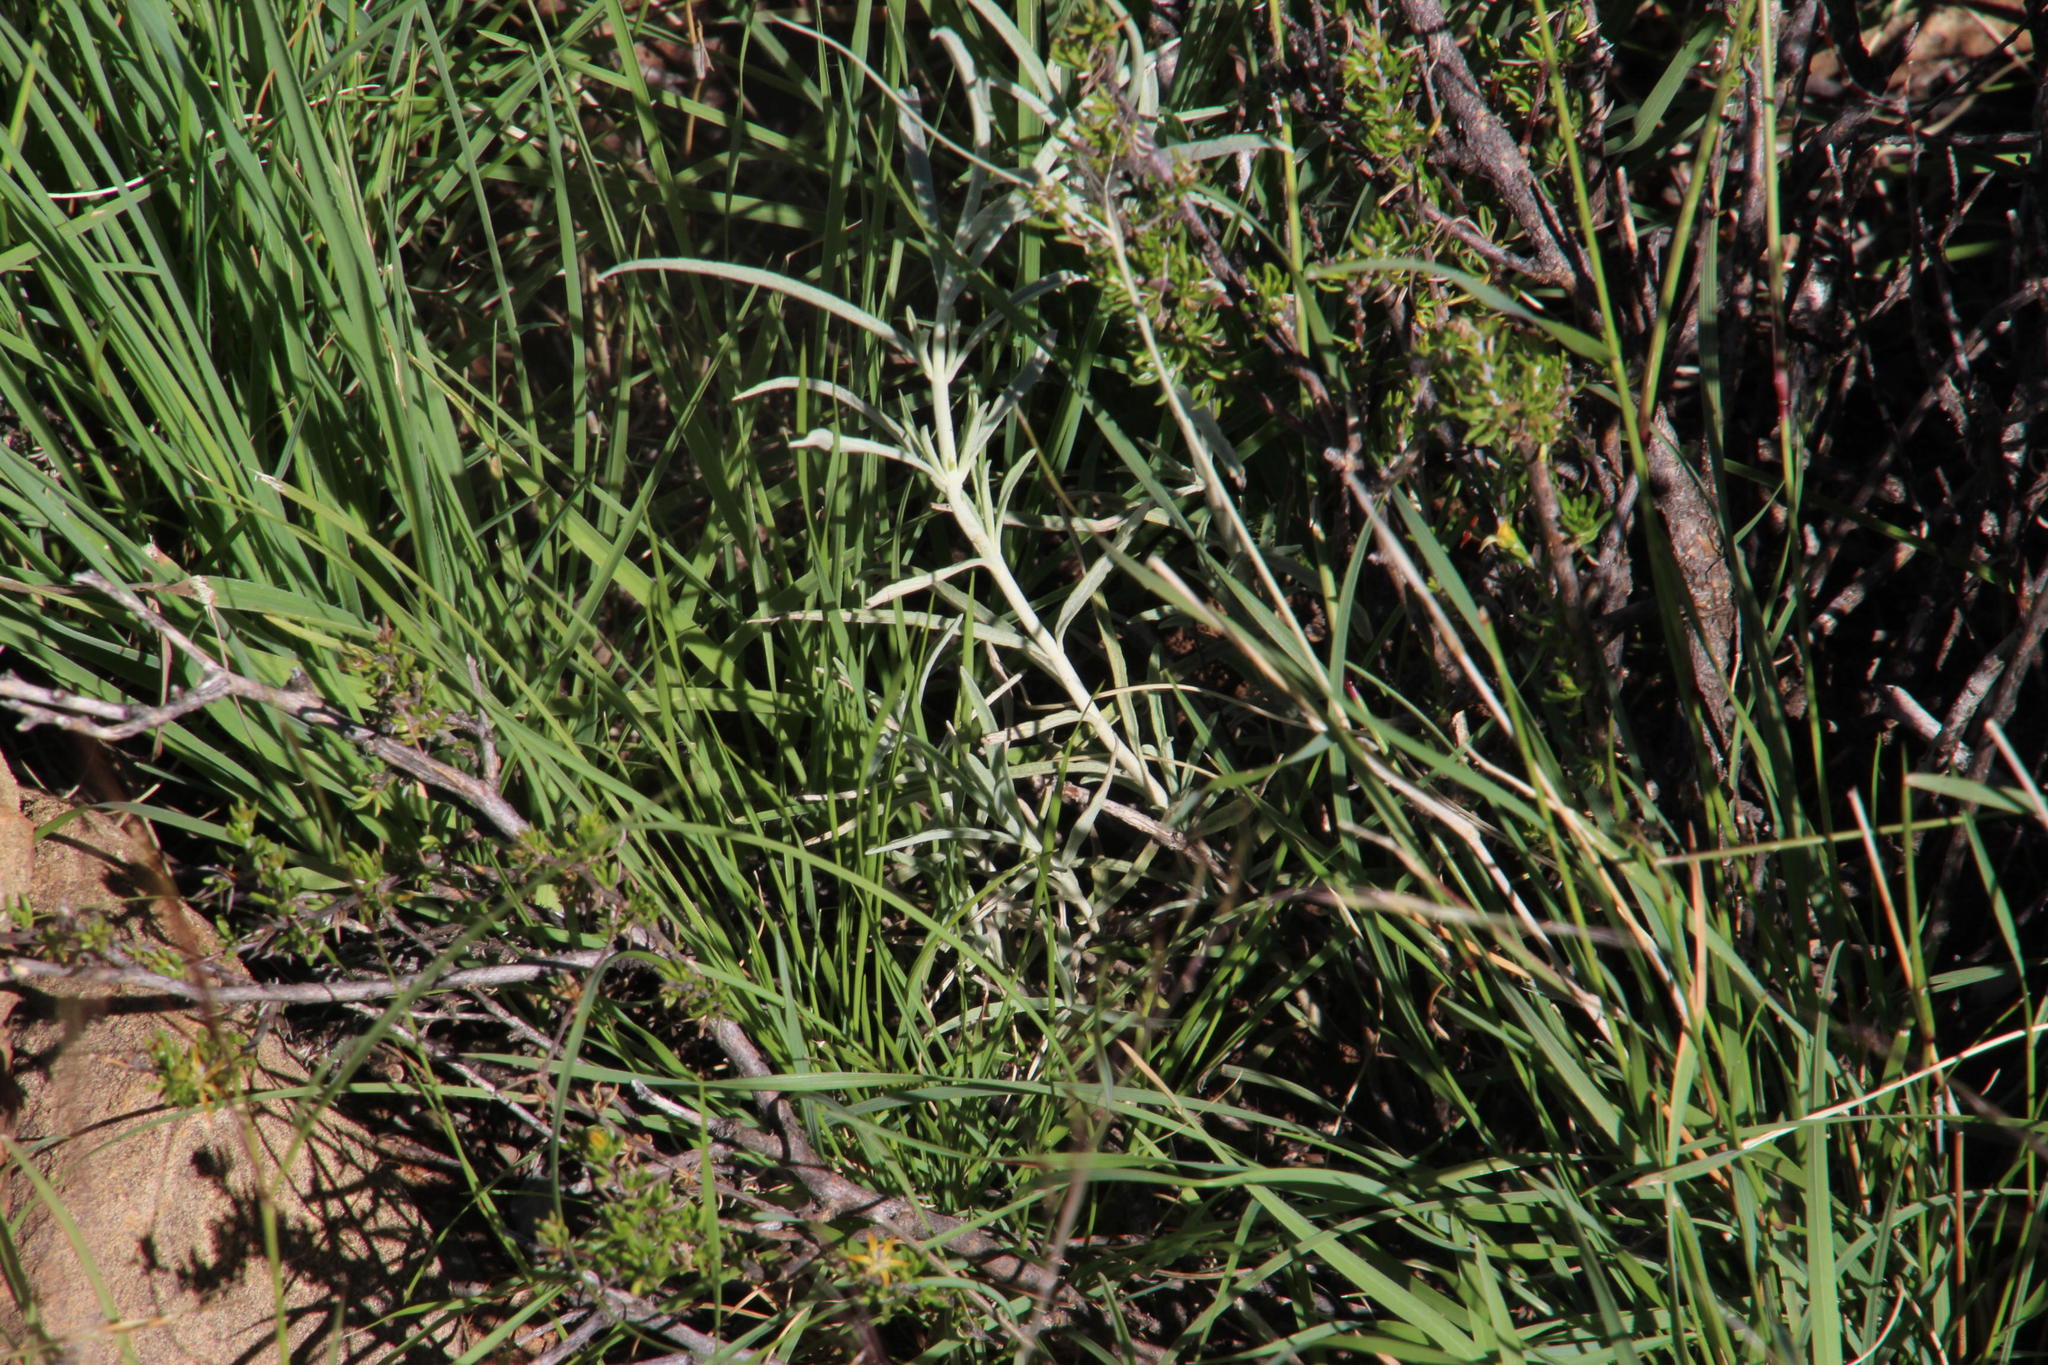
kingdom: Plantae
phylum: Tracheophyta
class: Magnoliopsida
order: Lamiales
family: Lamiaceae
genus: Stachys
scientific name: Stachys linearis
